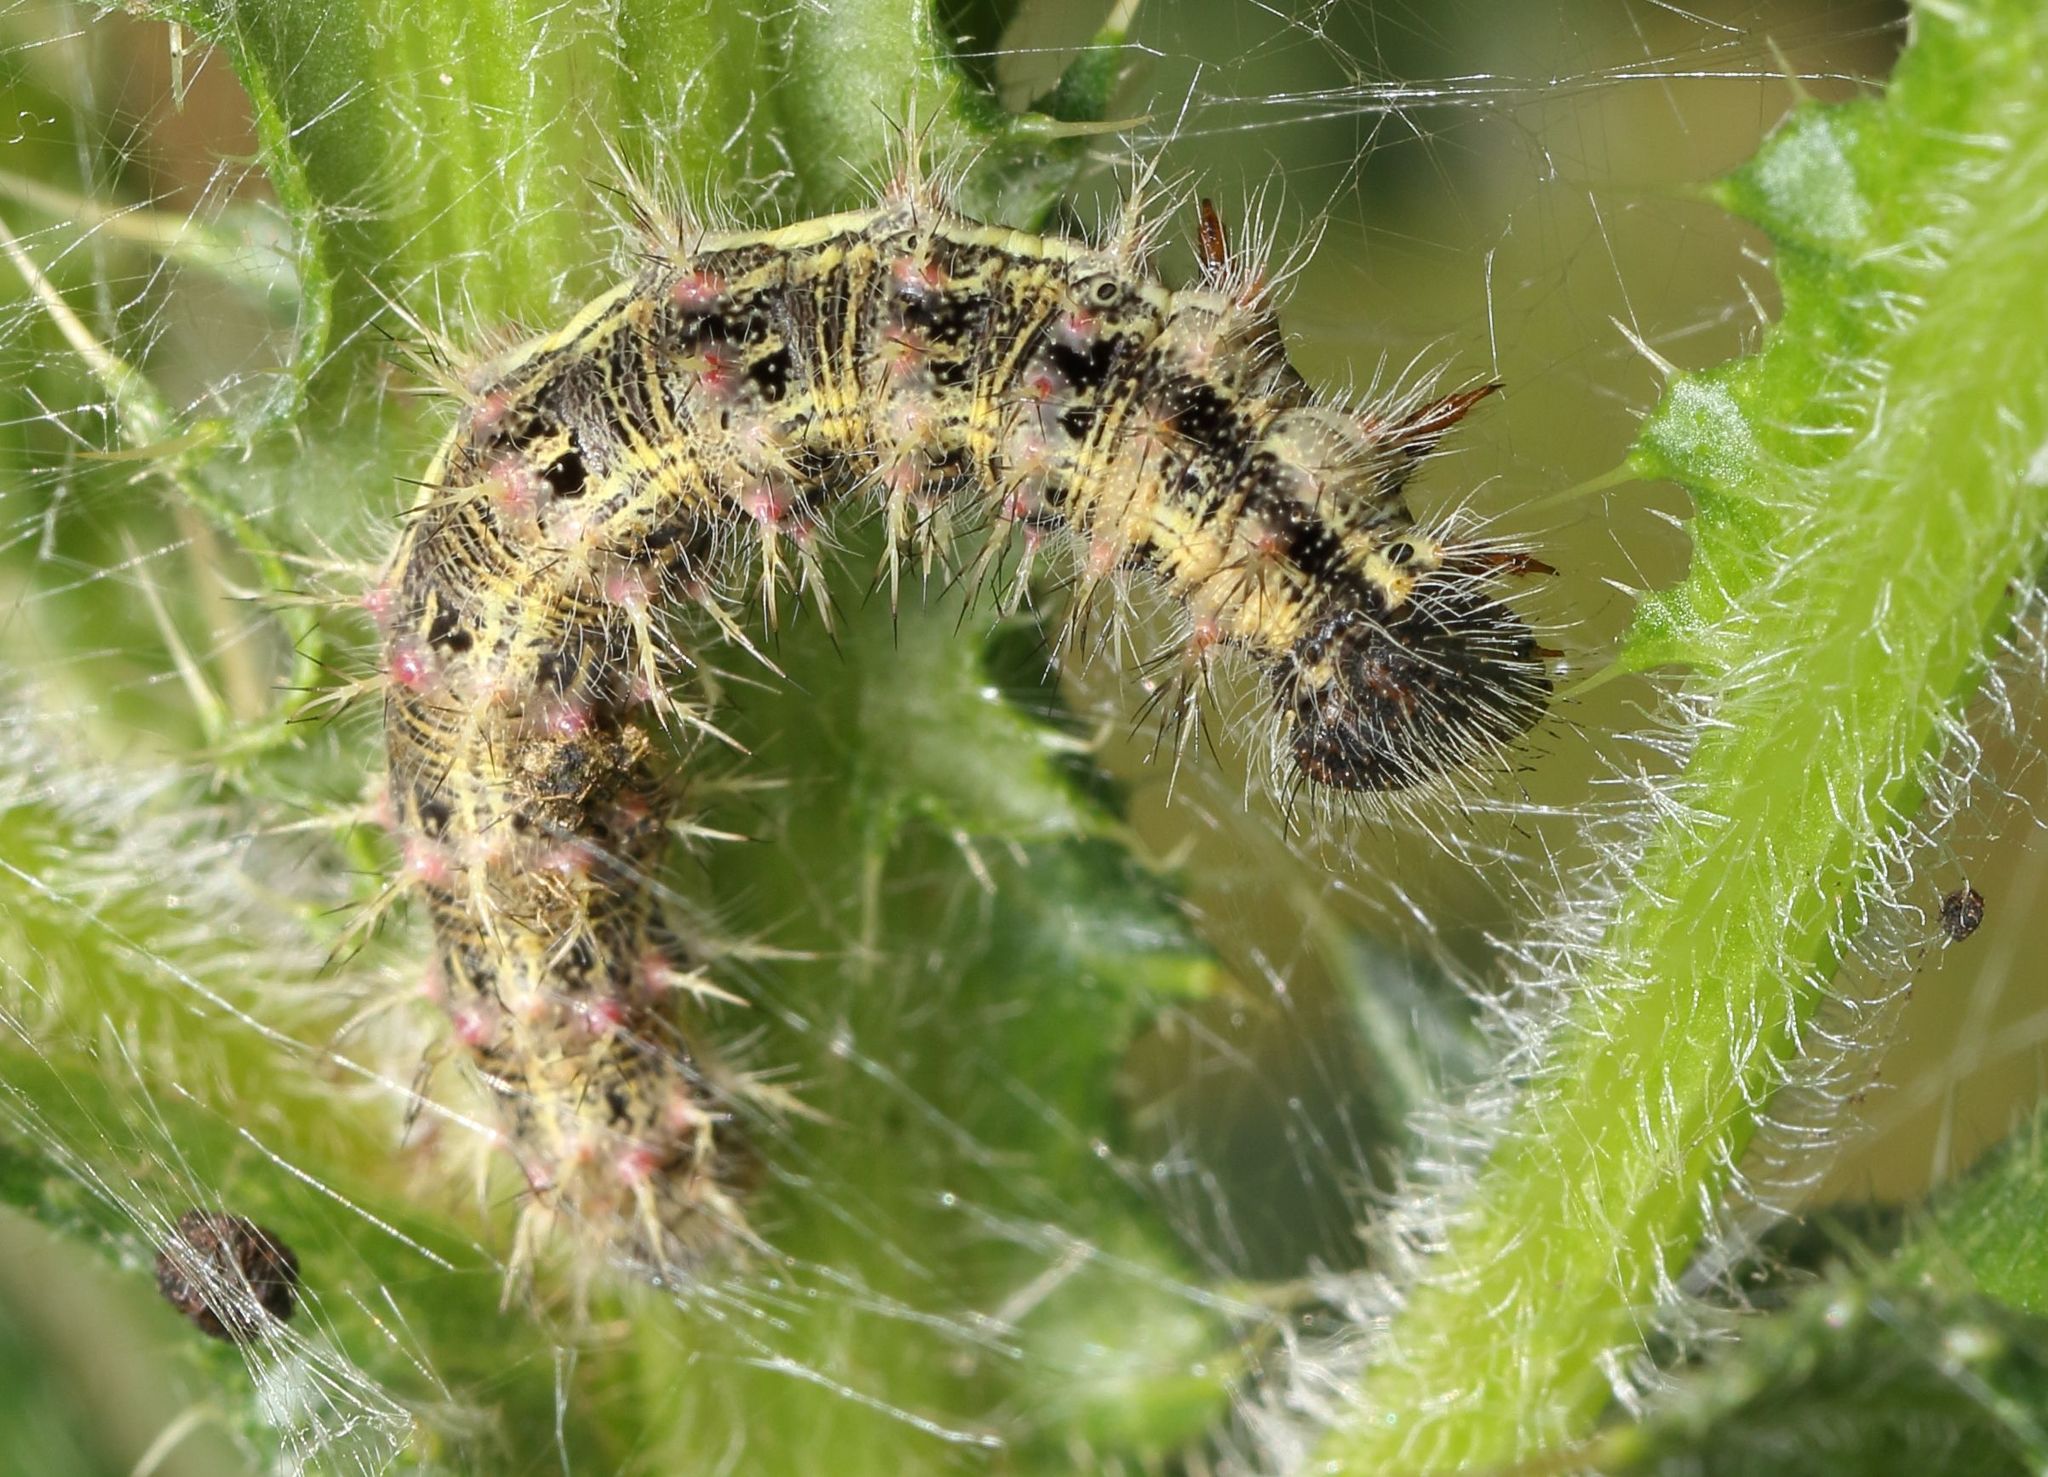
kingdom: Animalia
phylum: Arthropoda
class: Insecta
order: Lepidoptera
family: Nymphalidae
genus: Vanessa
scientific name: Vanessa cardui
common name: Painted lady
